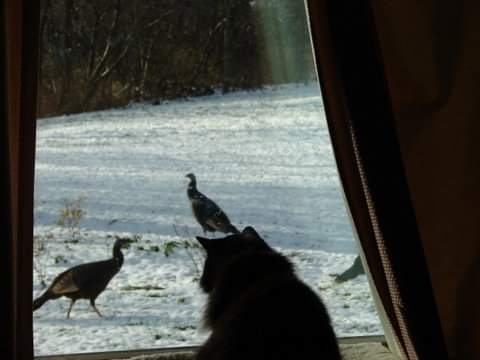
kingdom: Animalia
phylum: Chordata
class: Aves
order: Galliformes
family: Phasianidae
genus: Meleagris
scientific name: Meleagris gallopavo
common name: Wild turkey
